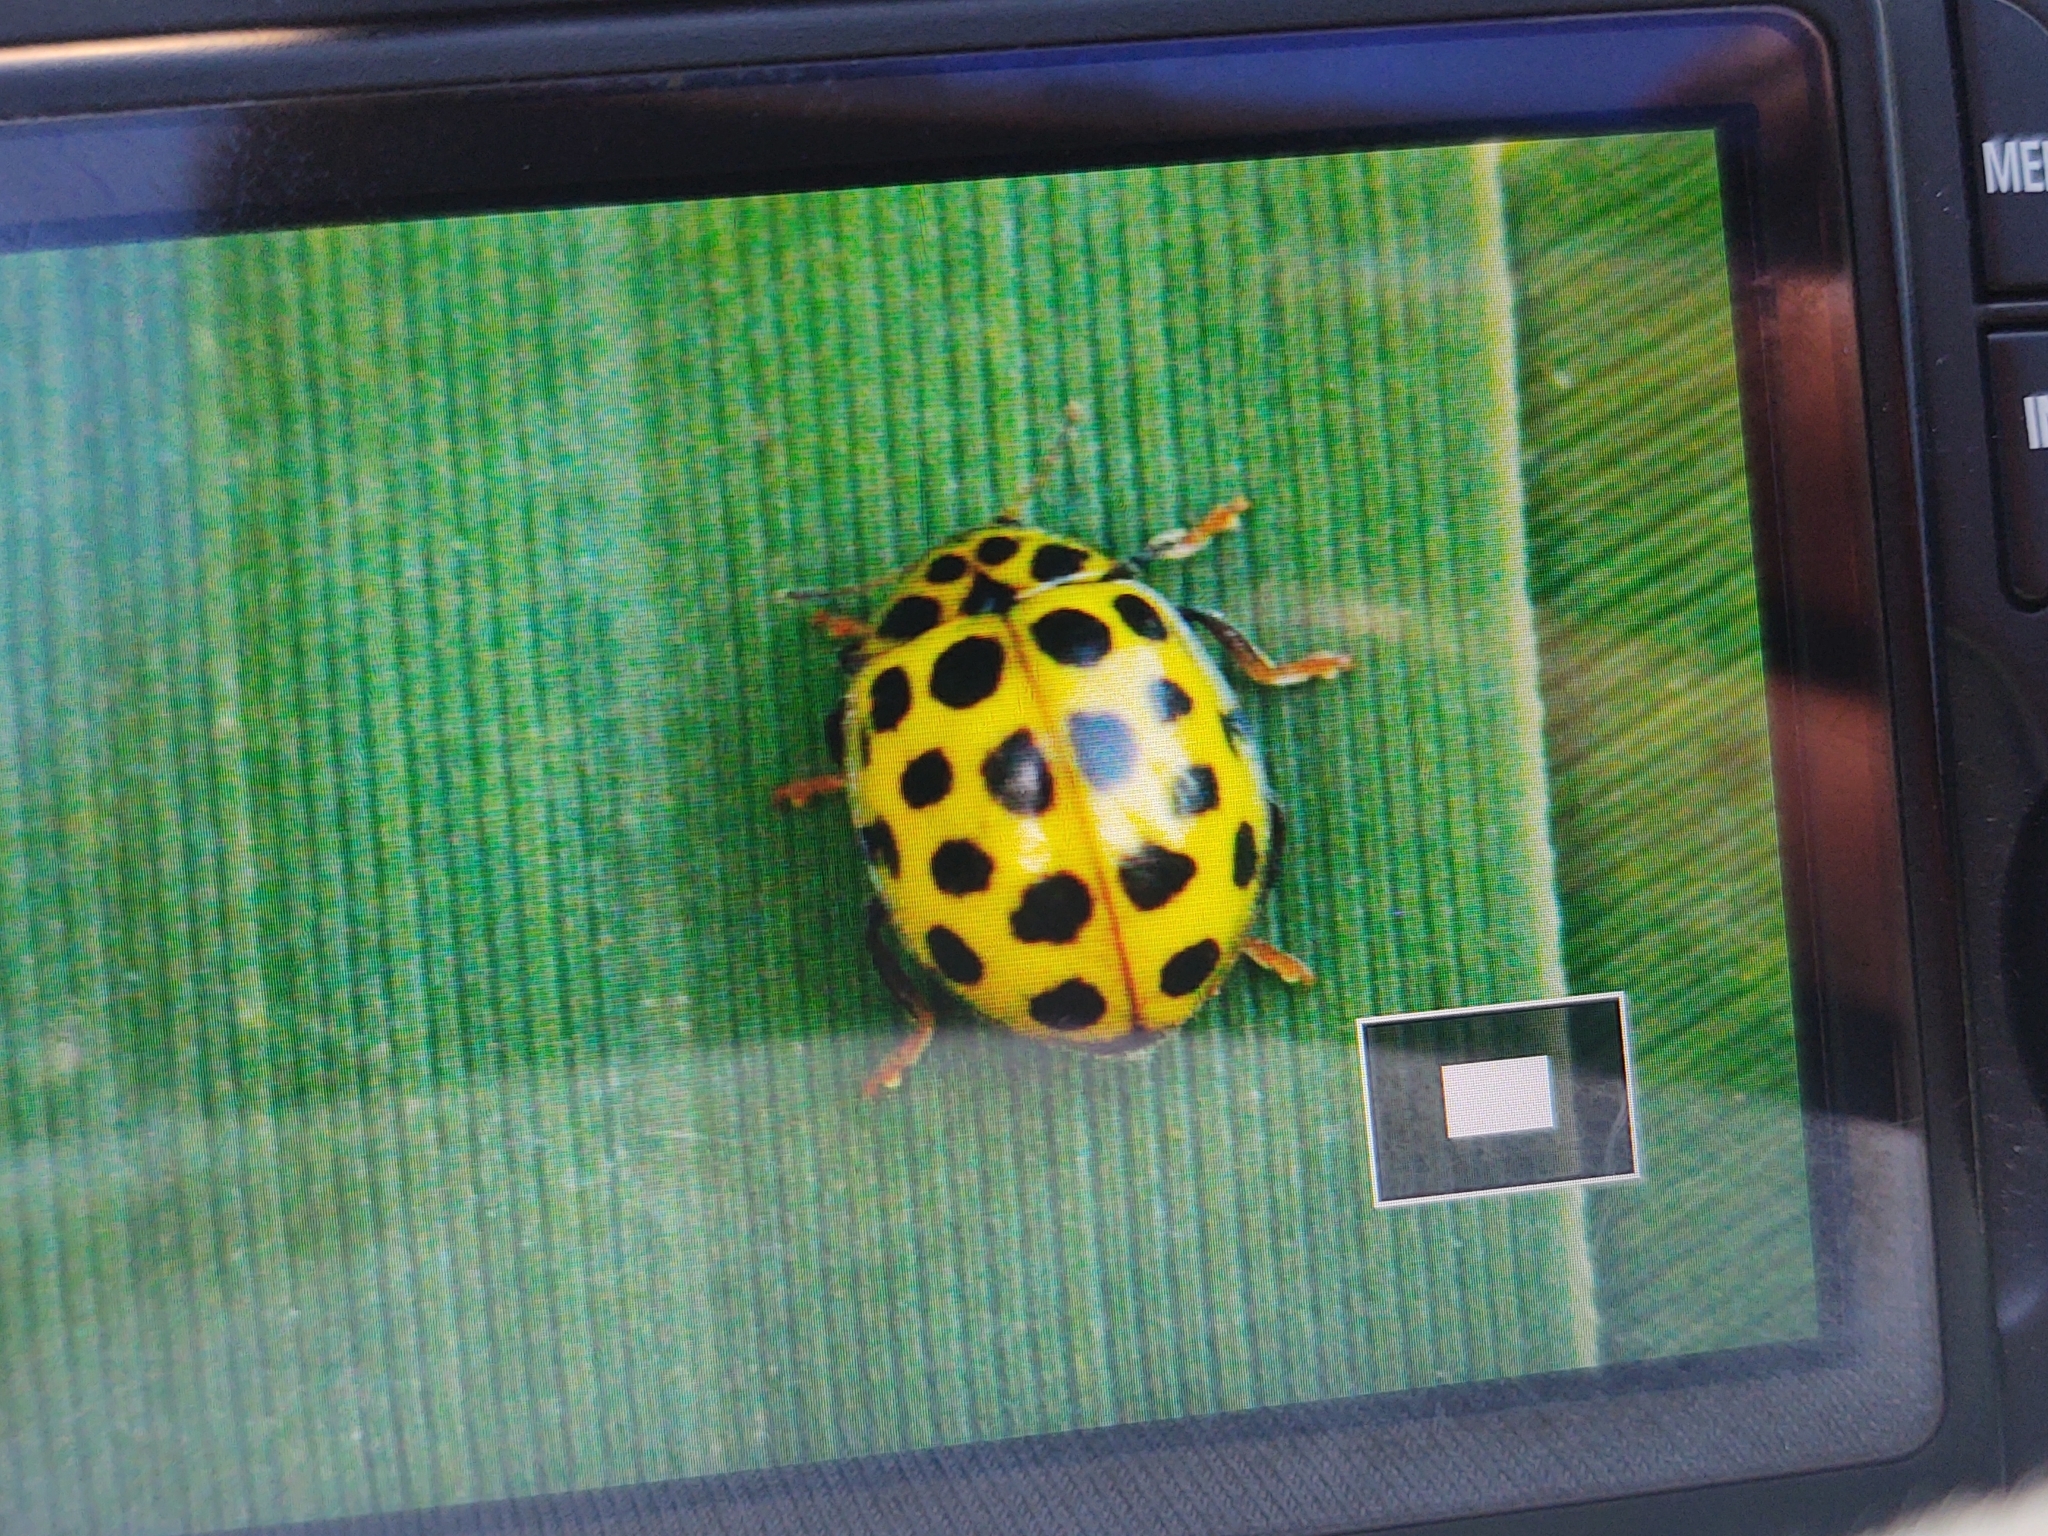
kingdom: Animalia
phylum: Arthropoda
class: Insecta
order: Coleoptera
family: Coccinellidae
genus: Psyllobora
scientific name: Psyllobora vigintiduopunctata
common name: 22-spot ladybird
